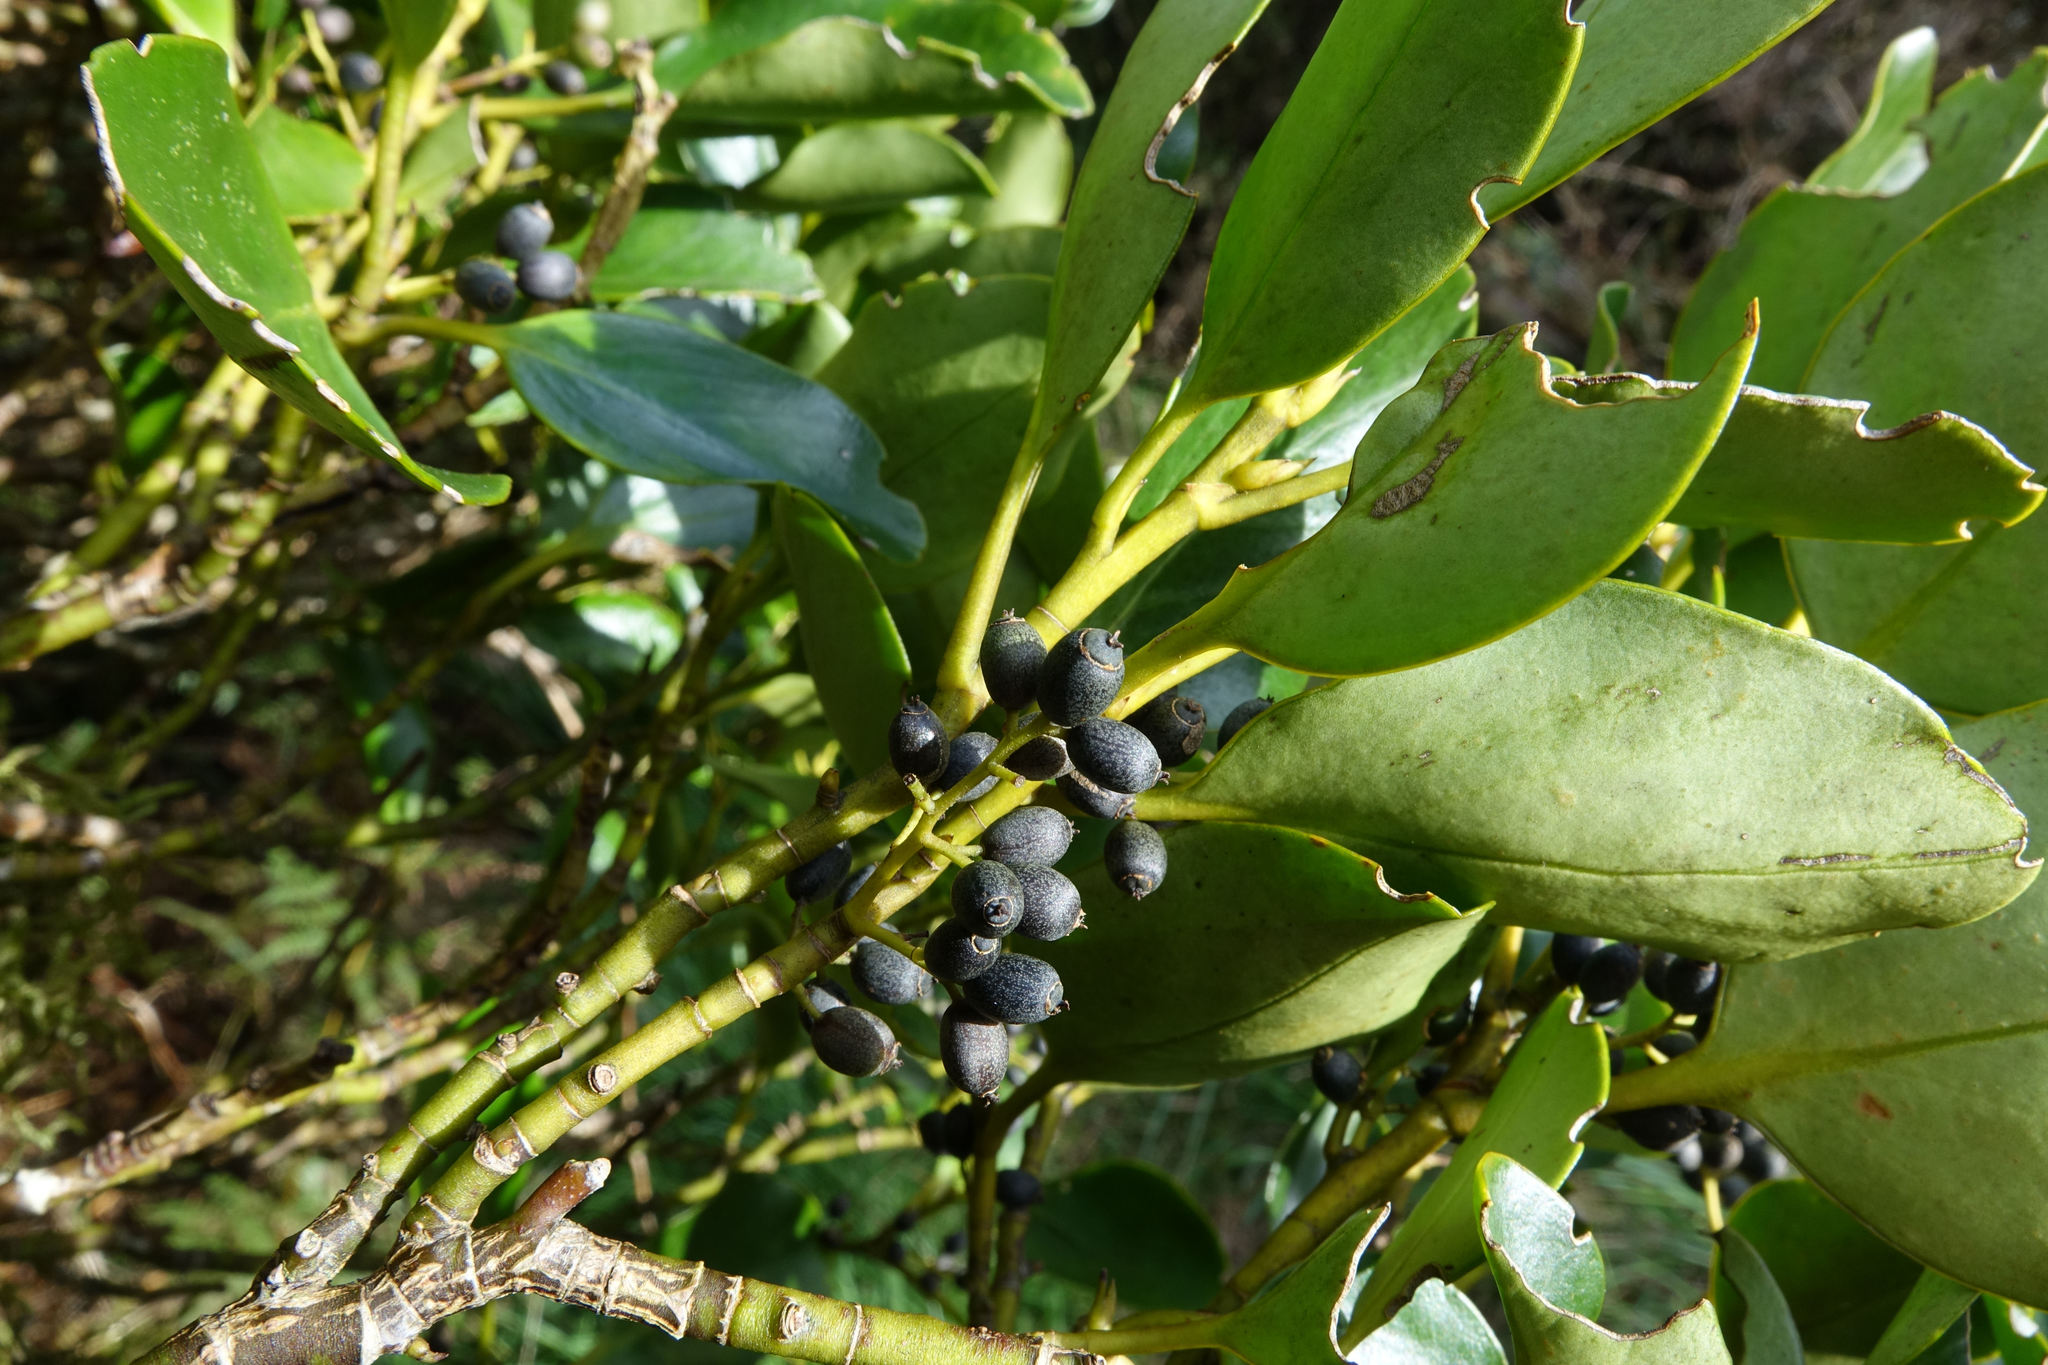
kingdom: Plantae
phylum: Tracheophyta
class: Magnoliopsida
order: Apiales
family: Griseliniaceae
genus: Griselinia
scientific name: Griselinia littoralis
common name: New zealand broadleaf
